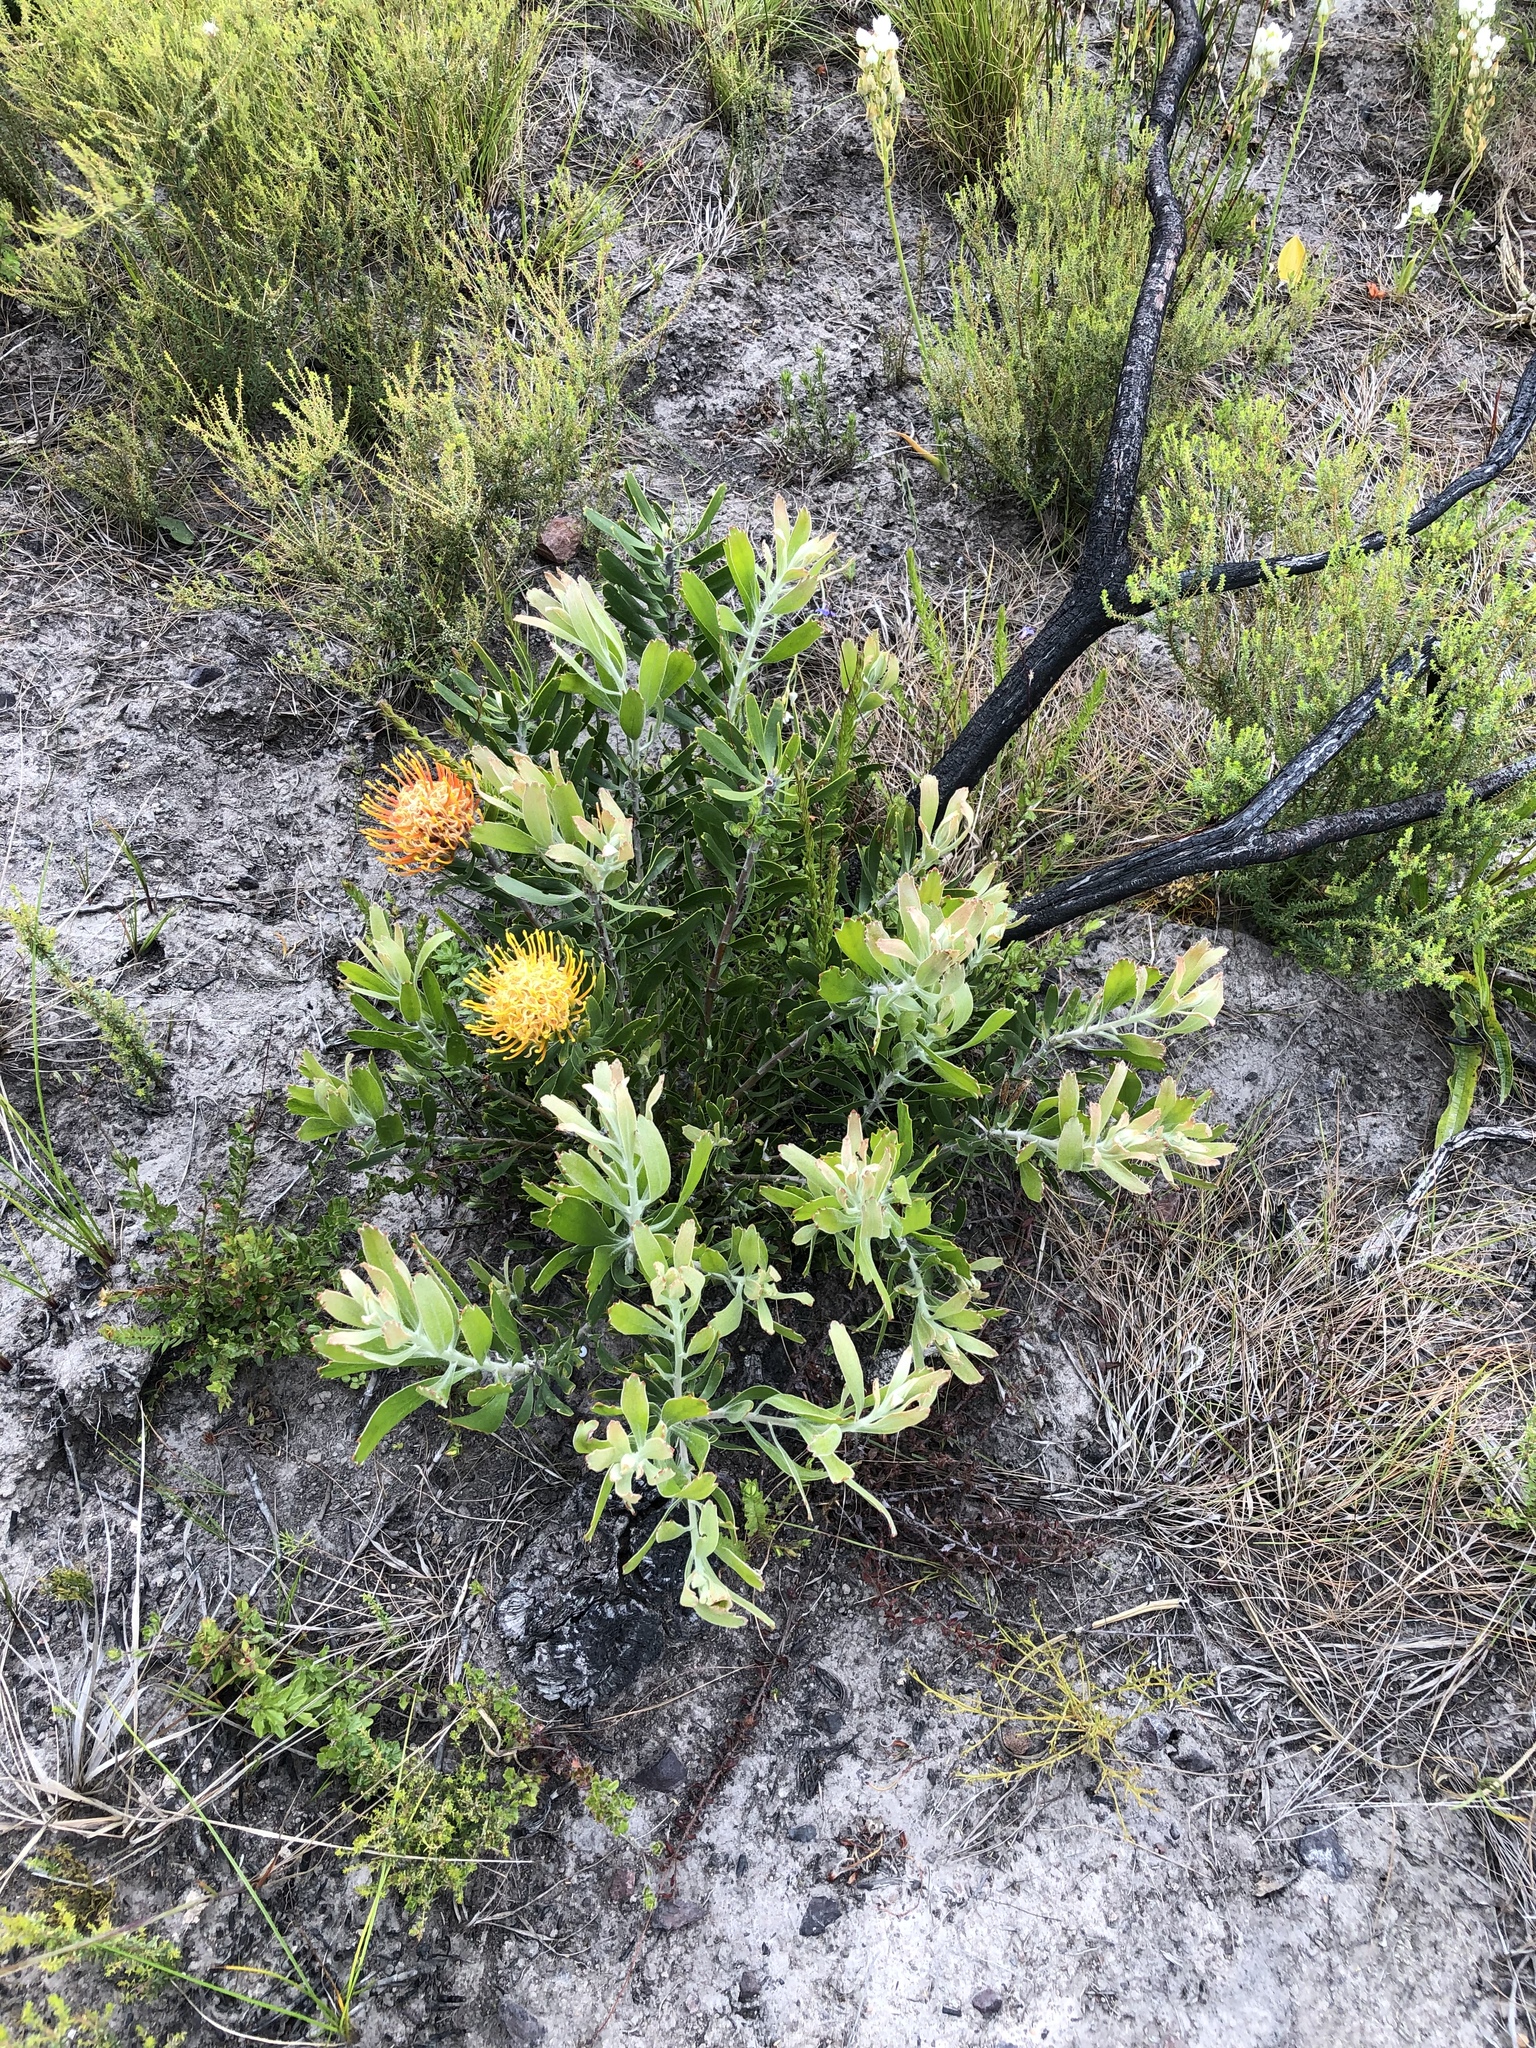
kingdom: Plantae
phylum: Tracheophyta
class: Magnoliopsida
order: Proteales
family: Proteaceae
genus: Leucospermum
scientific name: Leucospermum cuneiforme
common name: Common pincushion
